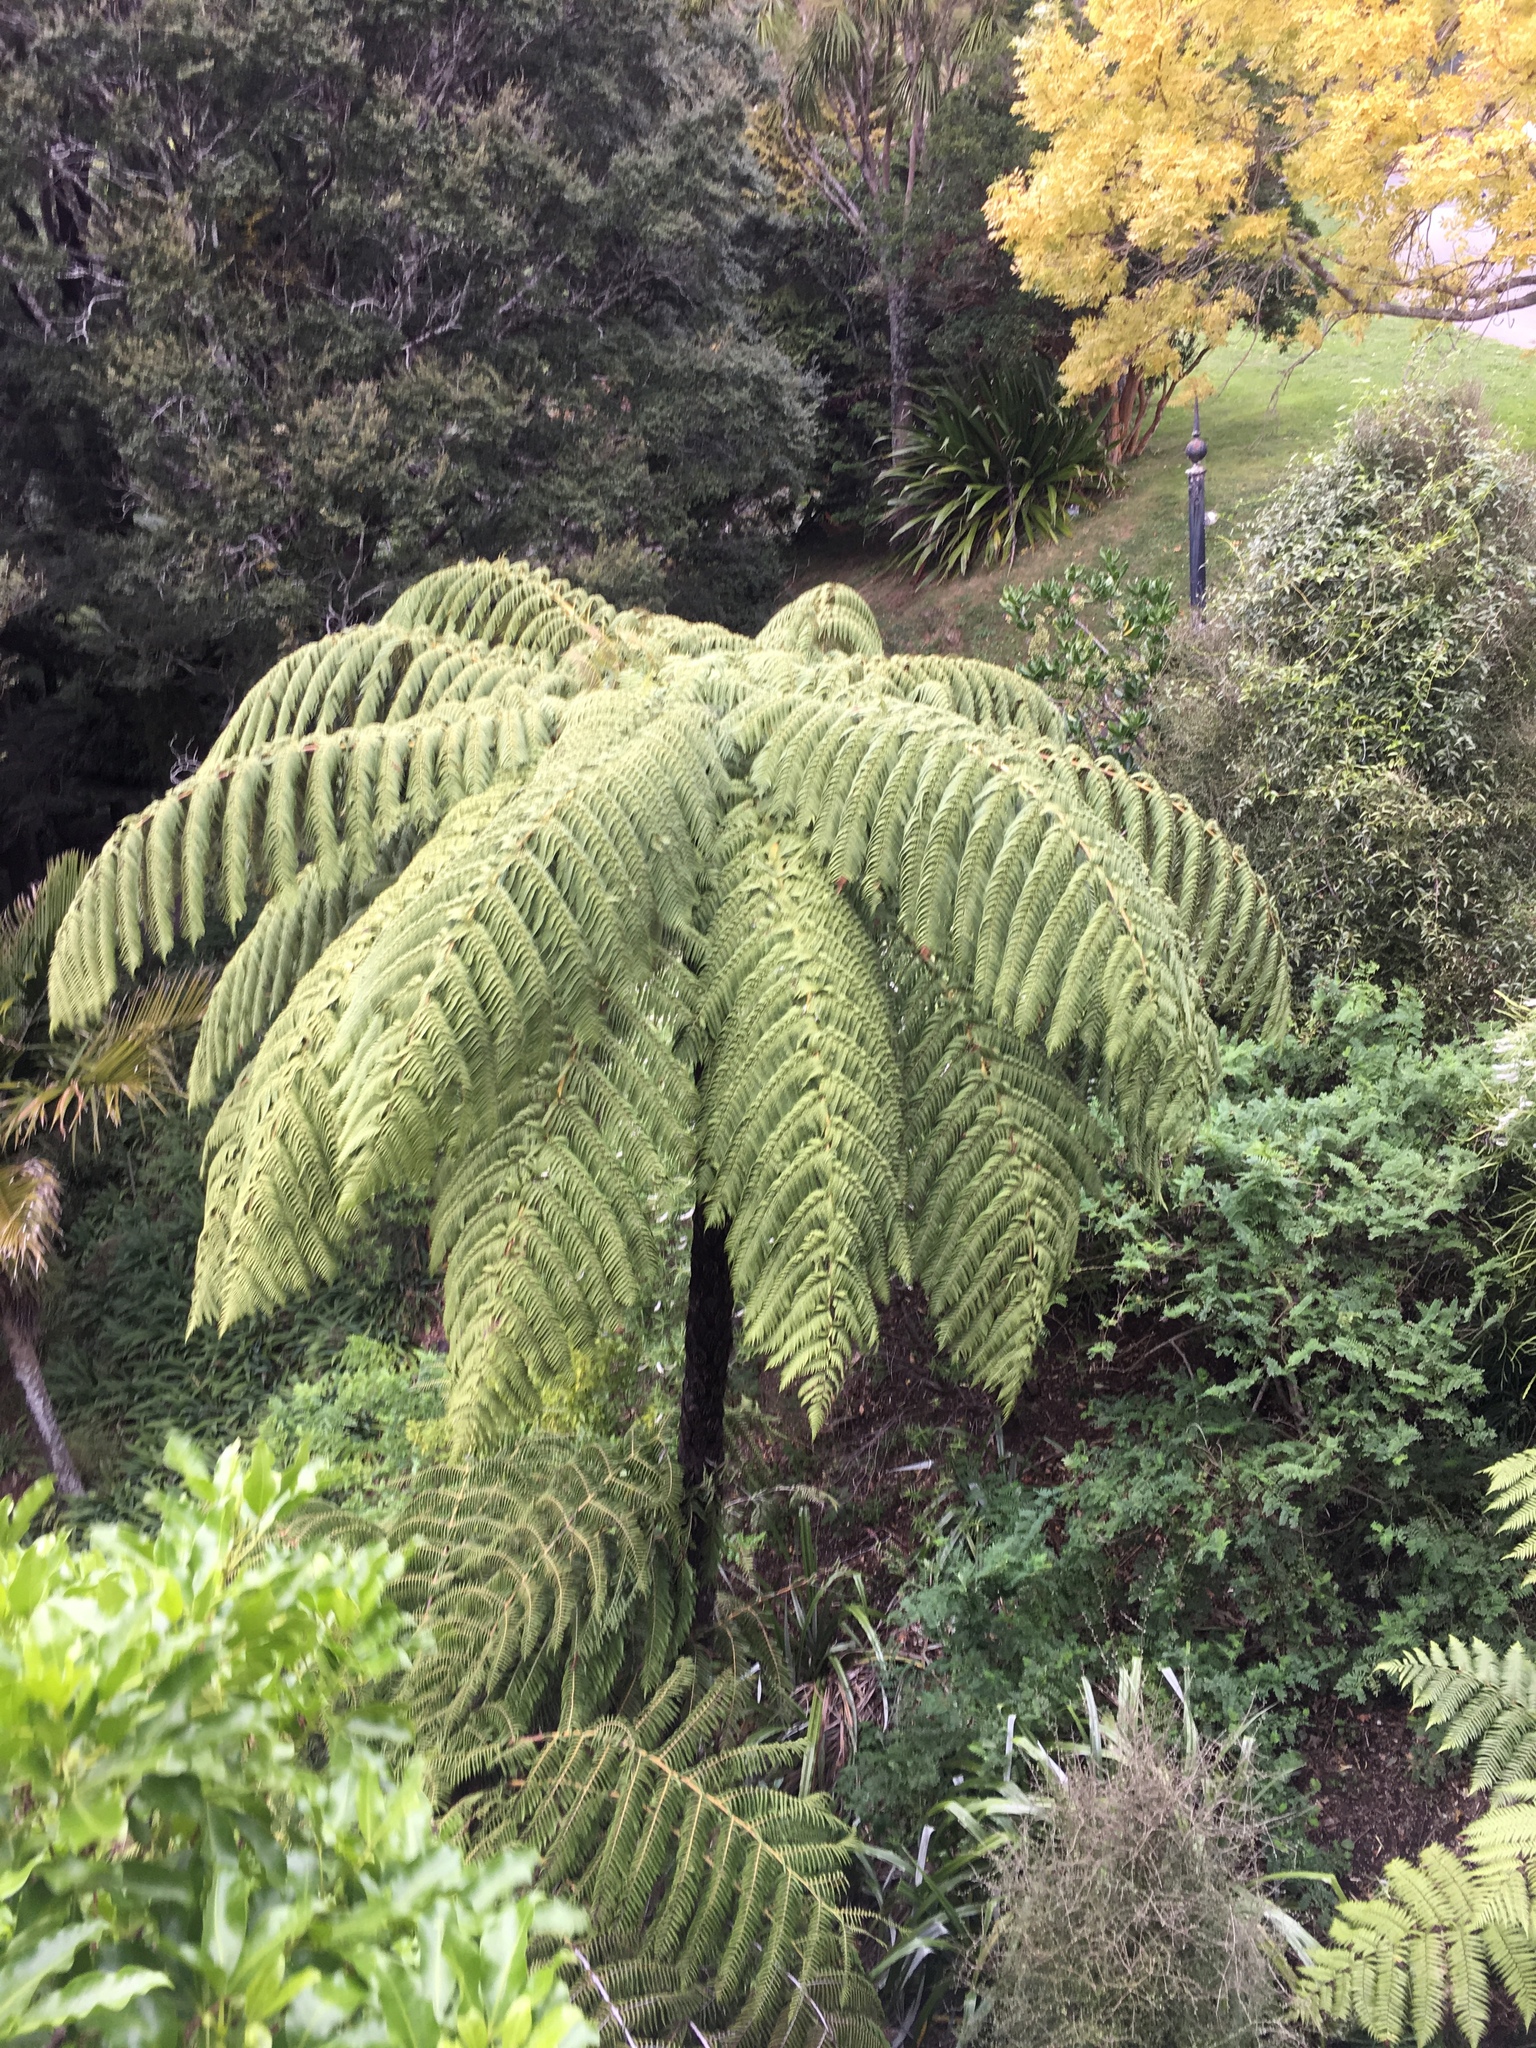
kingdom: Plantae
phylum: Tracheophyta
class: Polypodiopsida
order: Cyatheales
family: Cyatheaceae
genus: Sphaeropteris
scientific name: Sphaeropteris medullaris
